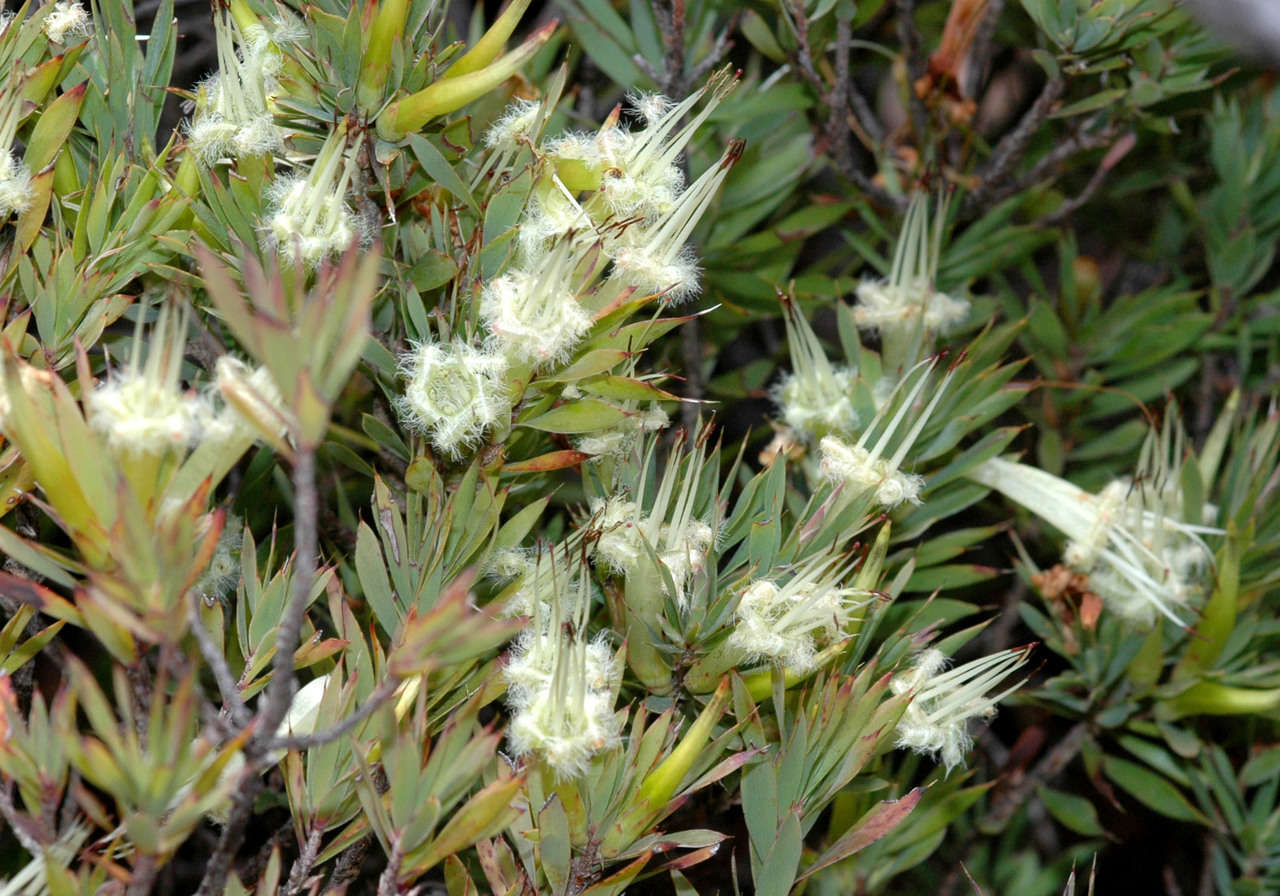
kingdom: Plantae
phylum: Tracheophyta
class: Magnoliopsida
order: Ericales
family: Ericaceae
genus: Styphelia
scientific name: Styphelia adscendens
